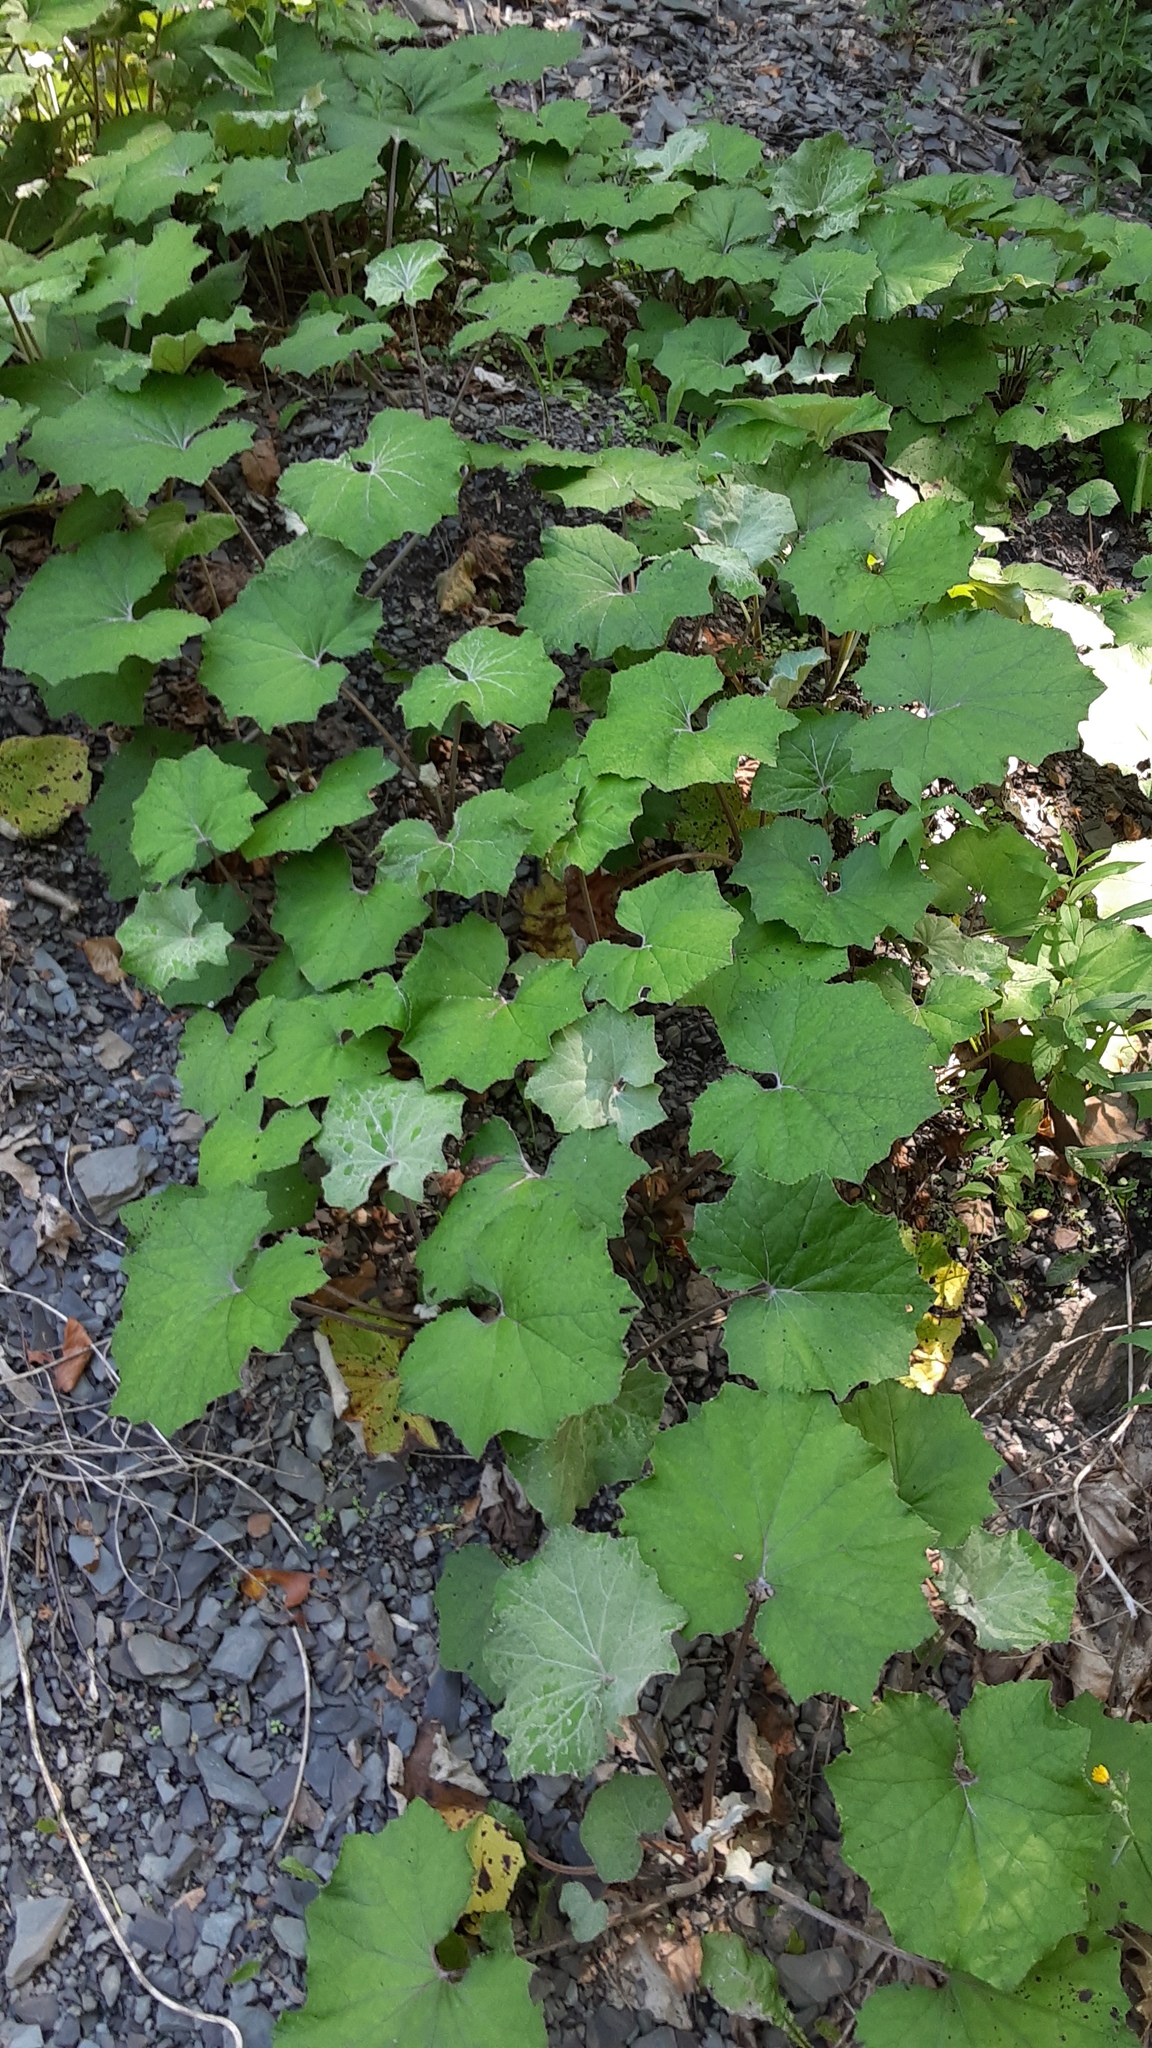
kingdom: Plantae
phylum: Tracheophyta
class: Magnoliopsida
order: Asterales
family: Asteraceae
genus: Tussilago
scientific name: Tussilago farfara
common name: Coltsfoot
